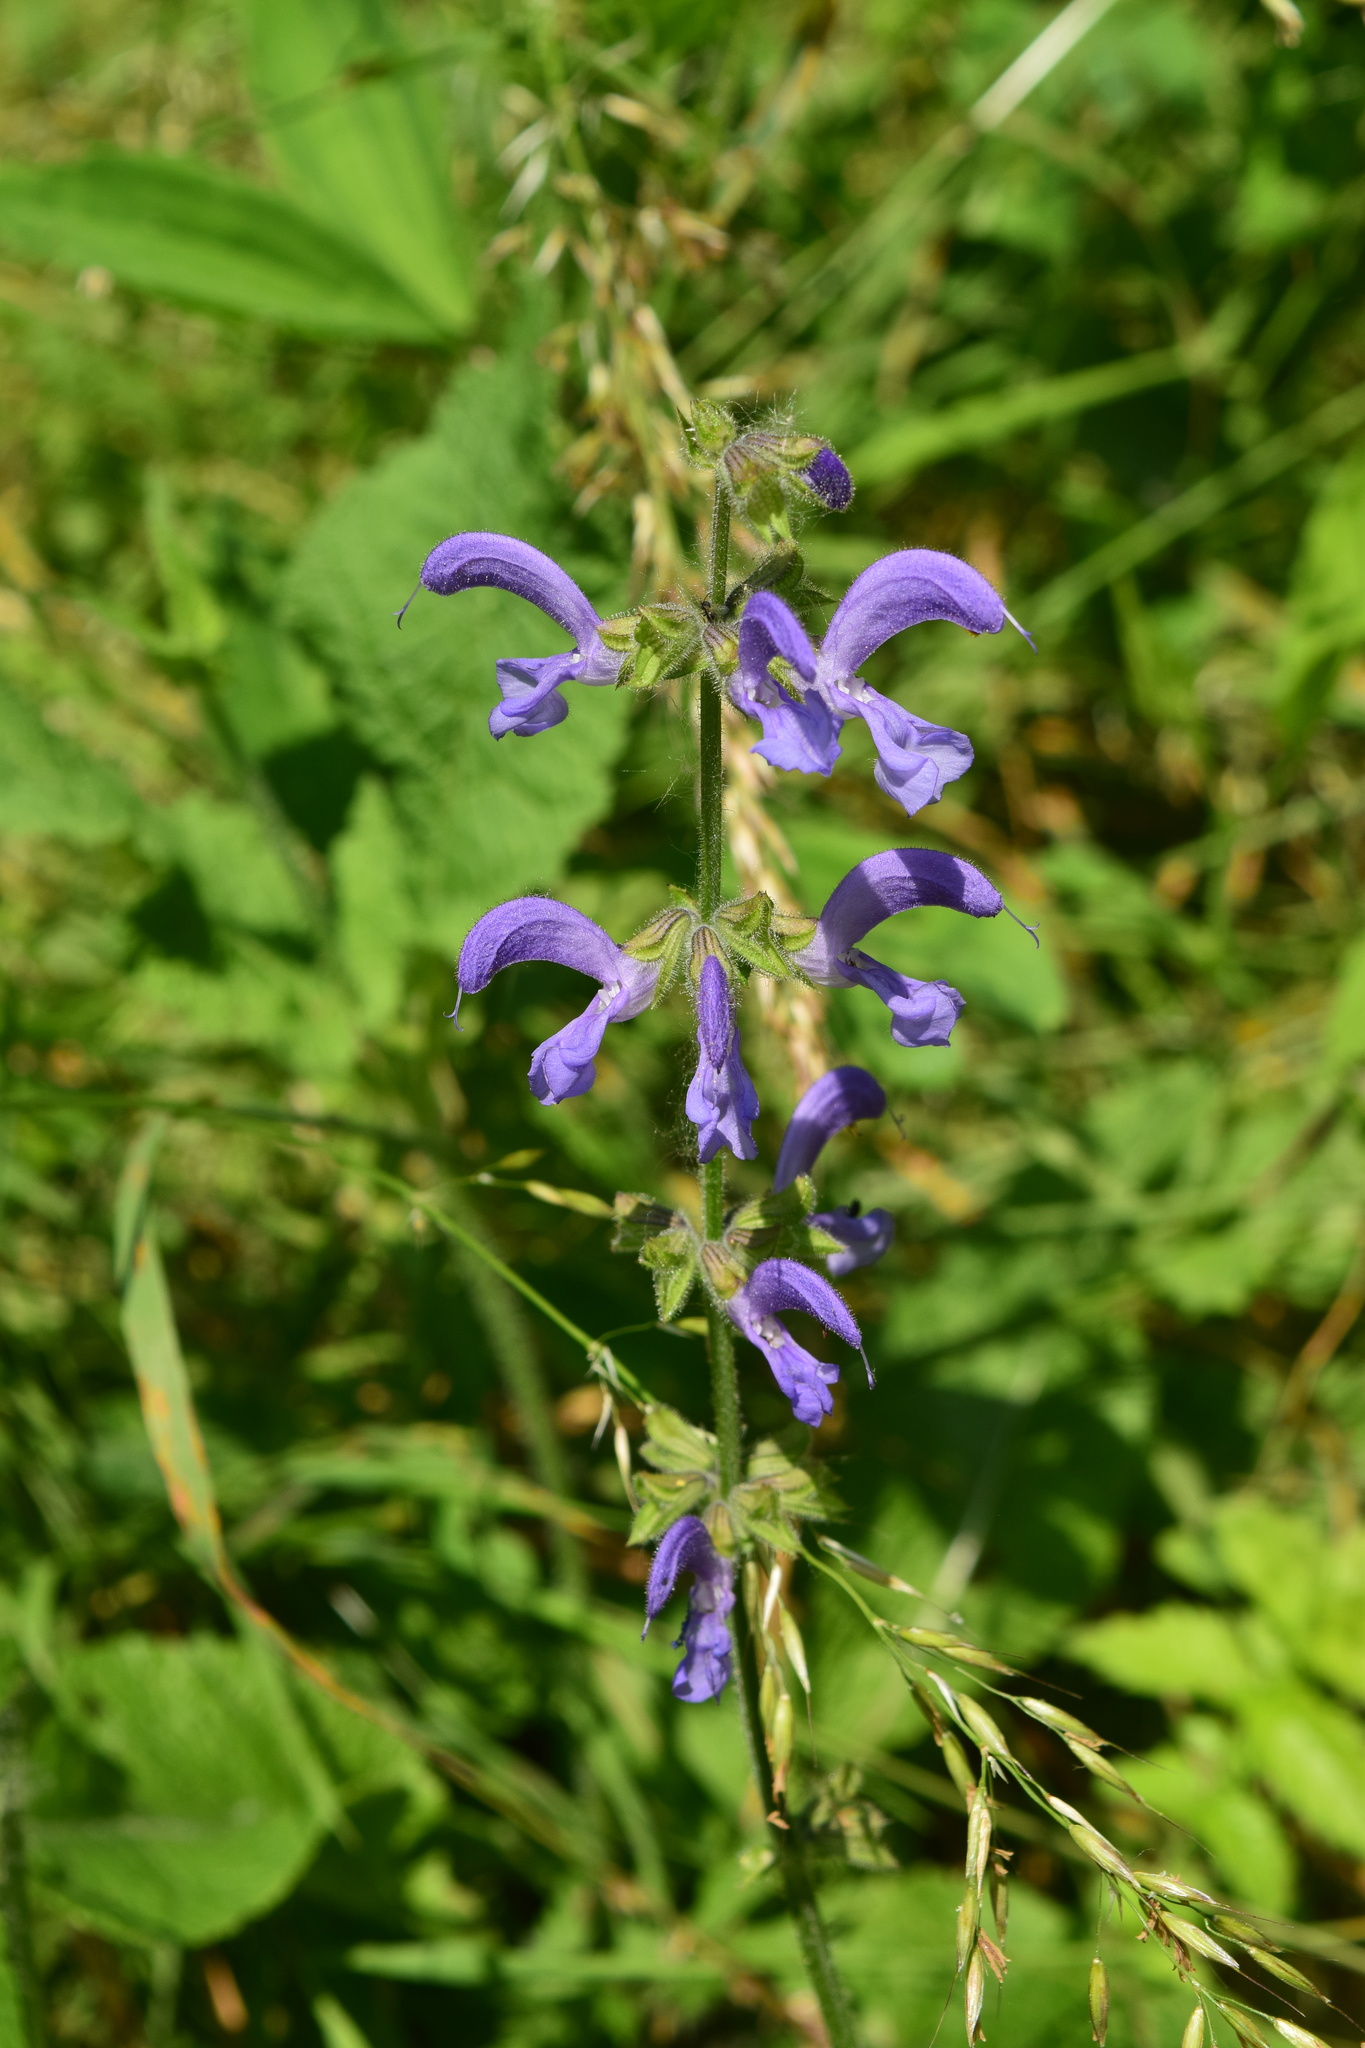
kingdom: Plantae
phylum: Tracheophyta
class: Magnoliopsida
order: Lamiales
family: Lamiaceae
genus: Salvia
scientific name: Salvia pratensis
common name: Meadow sage
